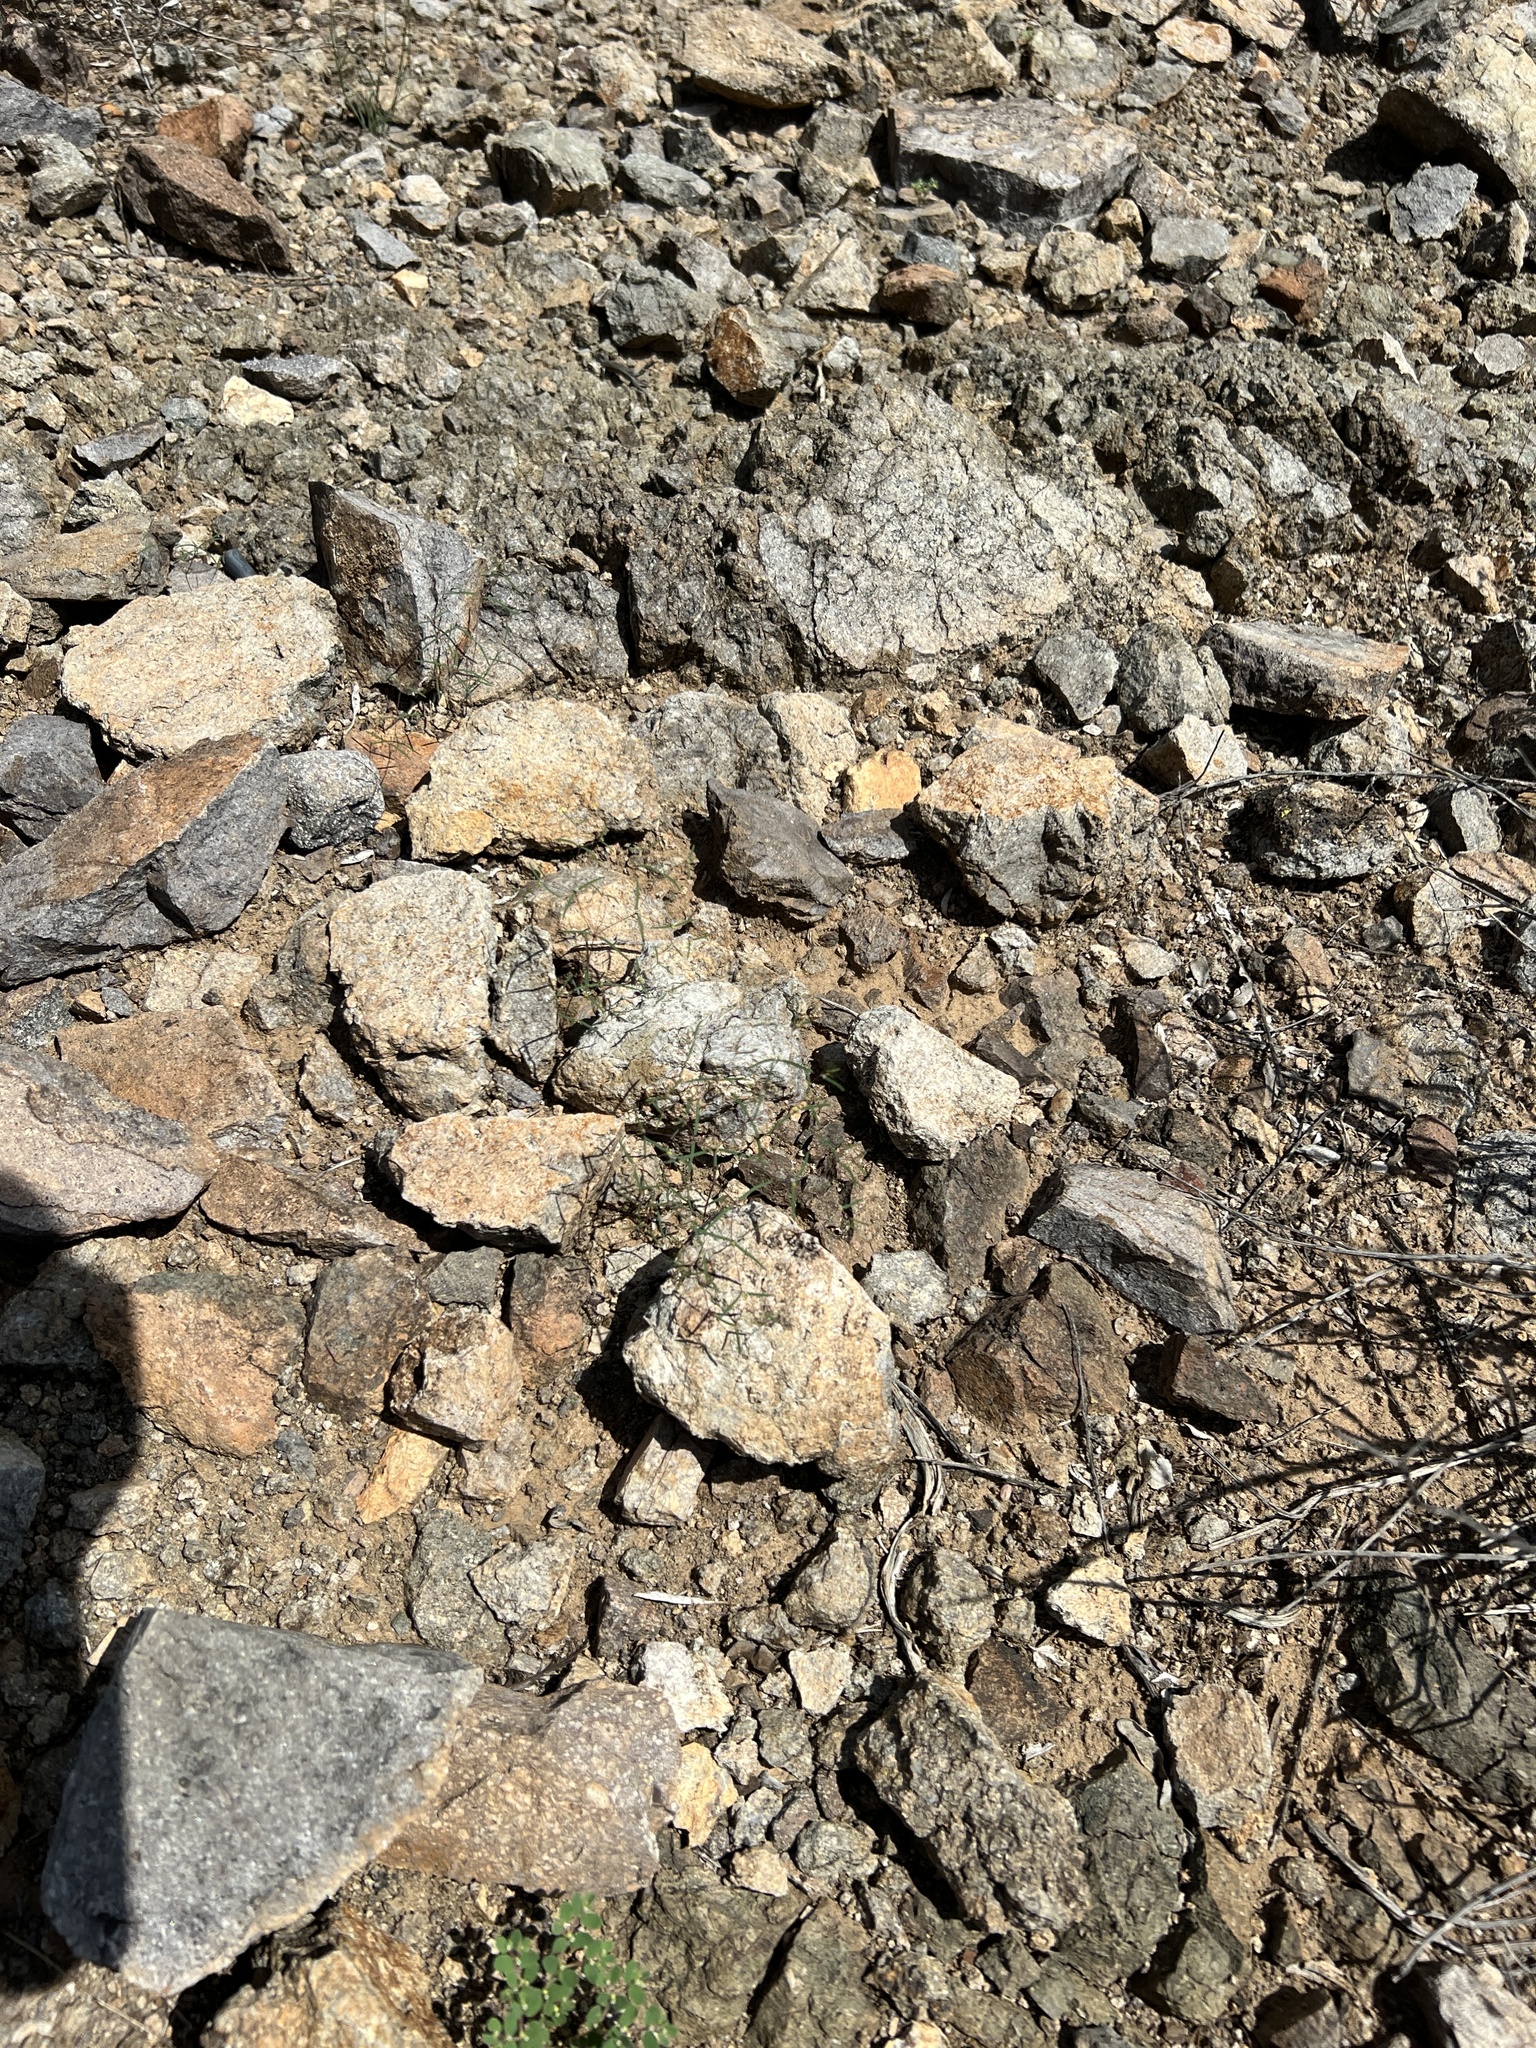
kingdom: Plantae
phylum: Tracheophyta
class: Magnoliopsida
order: Malpighiales
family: Euphorbiaceae
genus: Euphorbia
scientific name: Euphorbia gracillima
